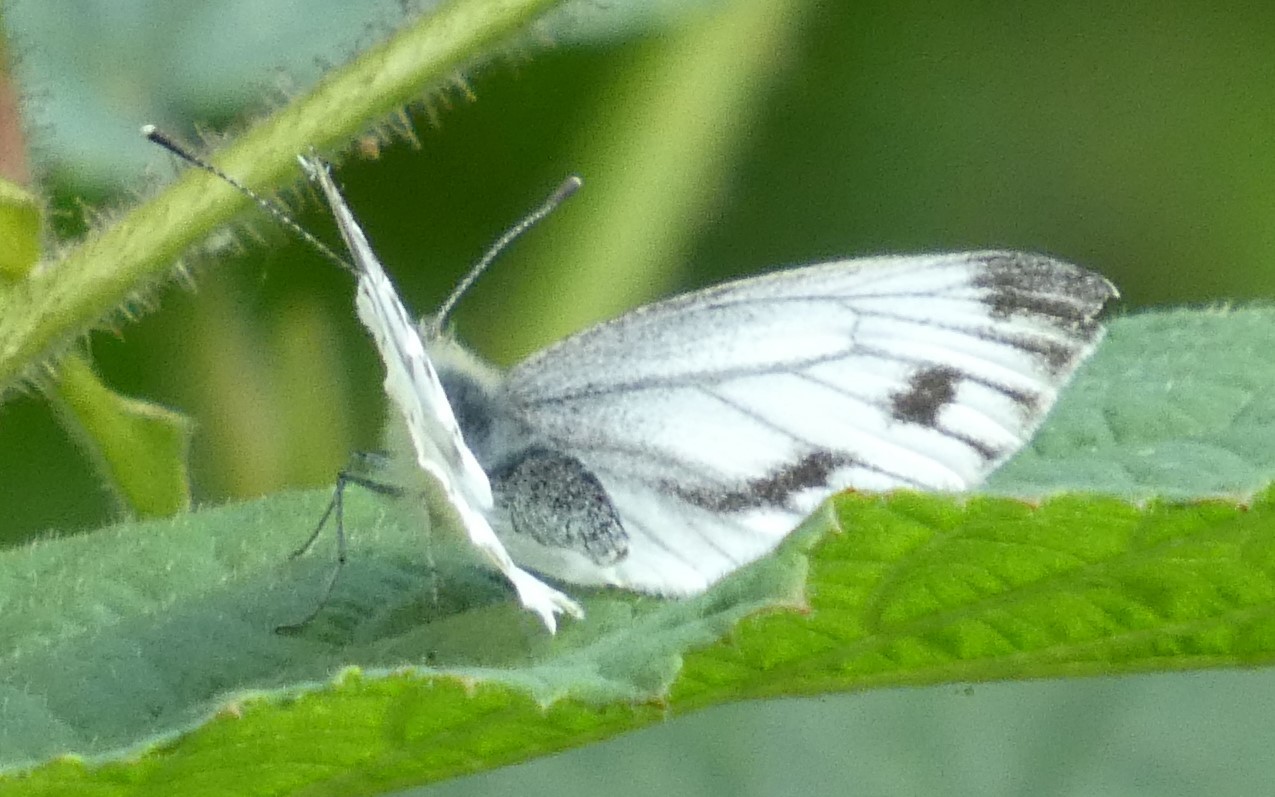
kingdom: Animalia
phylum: Arthropoda
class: Insecta
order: Lepidoptera
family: Pieridae
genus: Pieris
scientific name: Pieris napi
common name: Green-veined white
